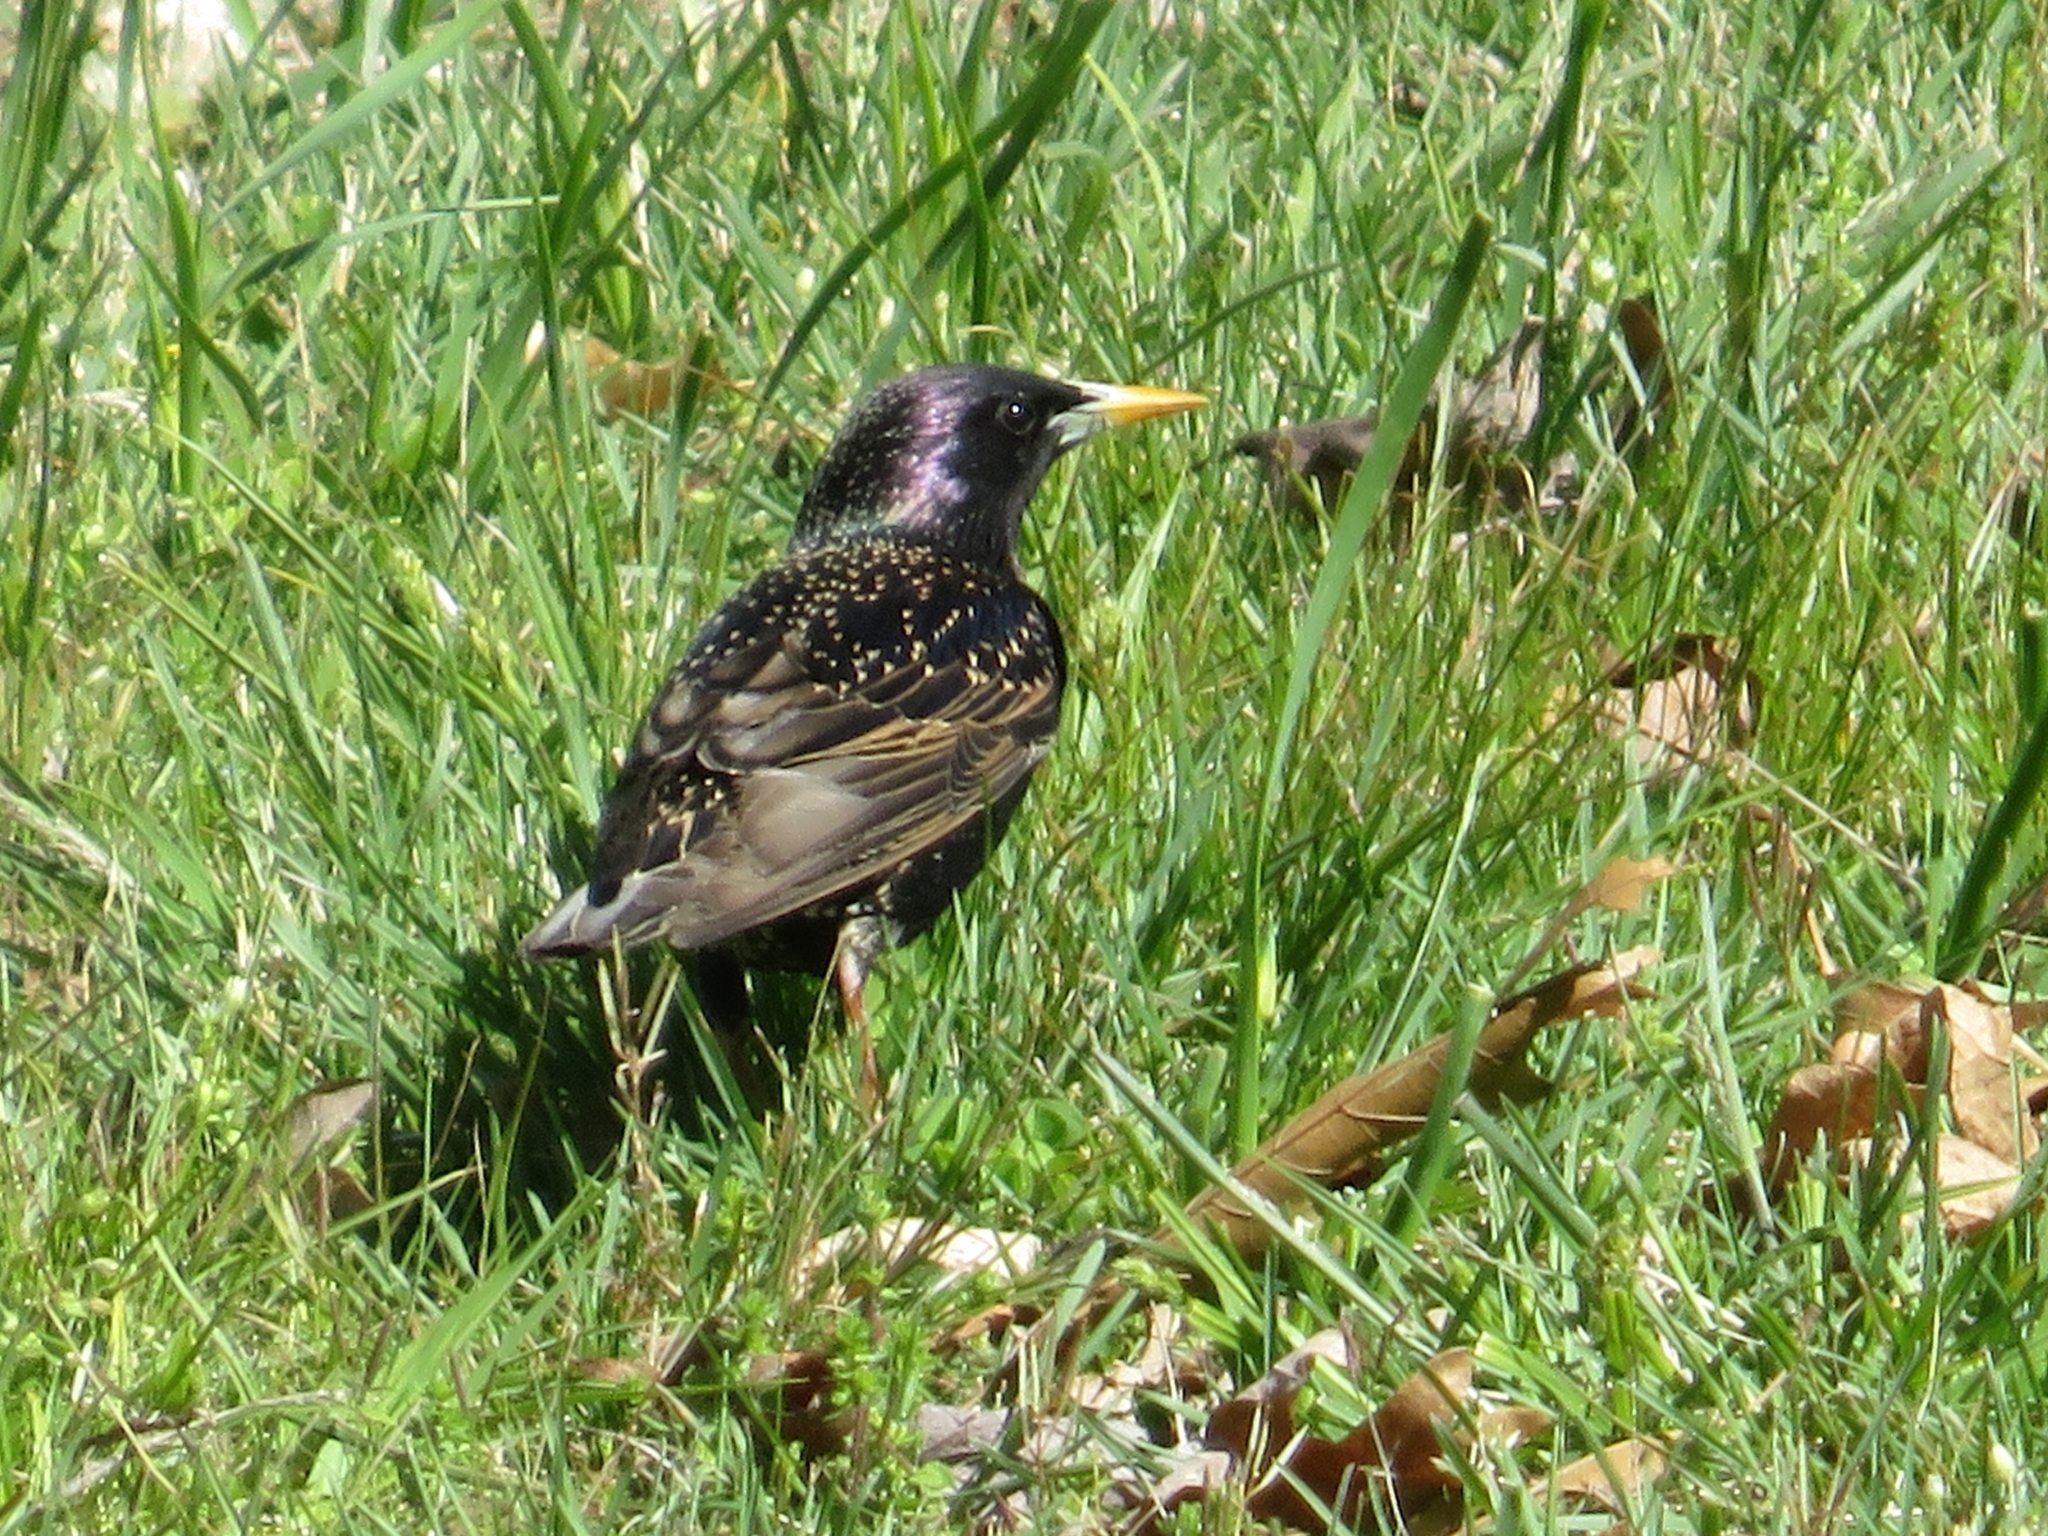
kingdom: Animalia
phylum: Chordata
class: Aves
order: Passeriformes
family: Sturnidae
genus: Sturnus
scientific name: Sturnus vulgaris
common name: Common starling
